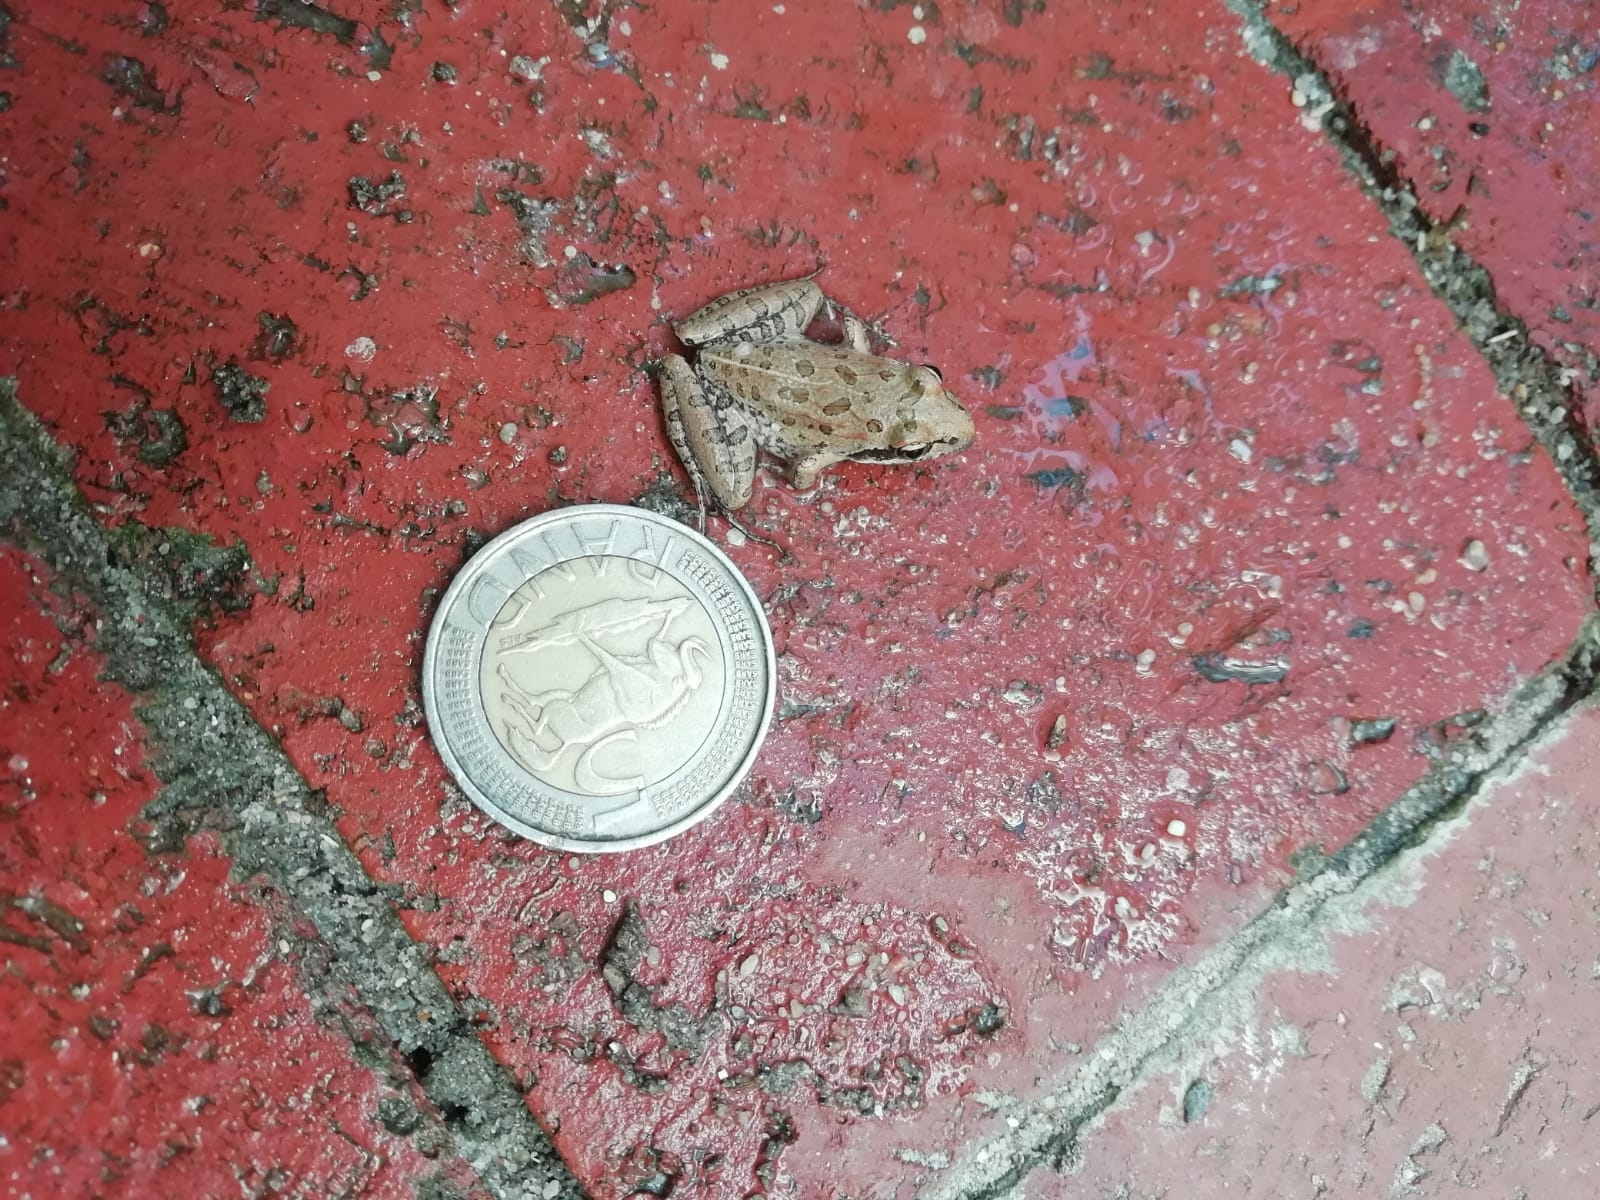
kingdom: Animalia
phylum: Chordata
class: Amphibia
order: Anura
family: Pyxicephalidae
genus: Strongylopus
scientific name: Strongylopus grayii
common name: Gray's stream frog
